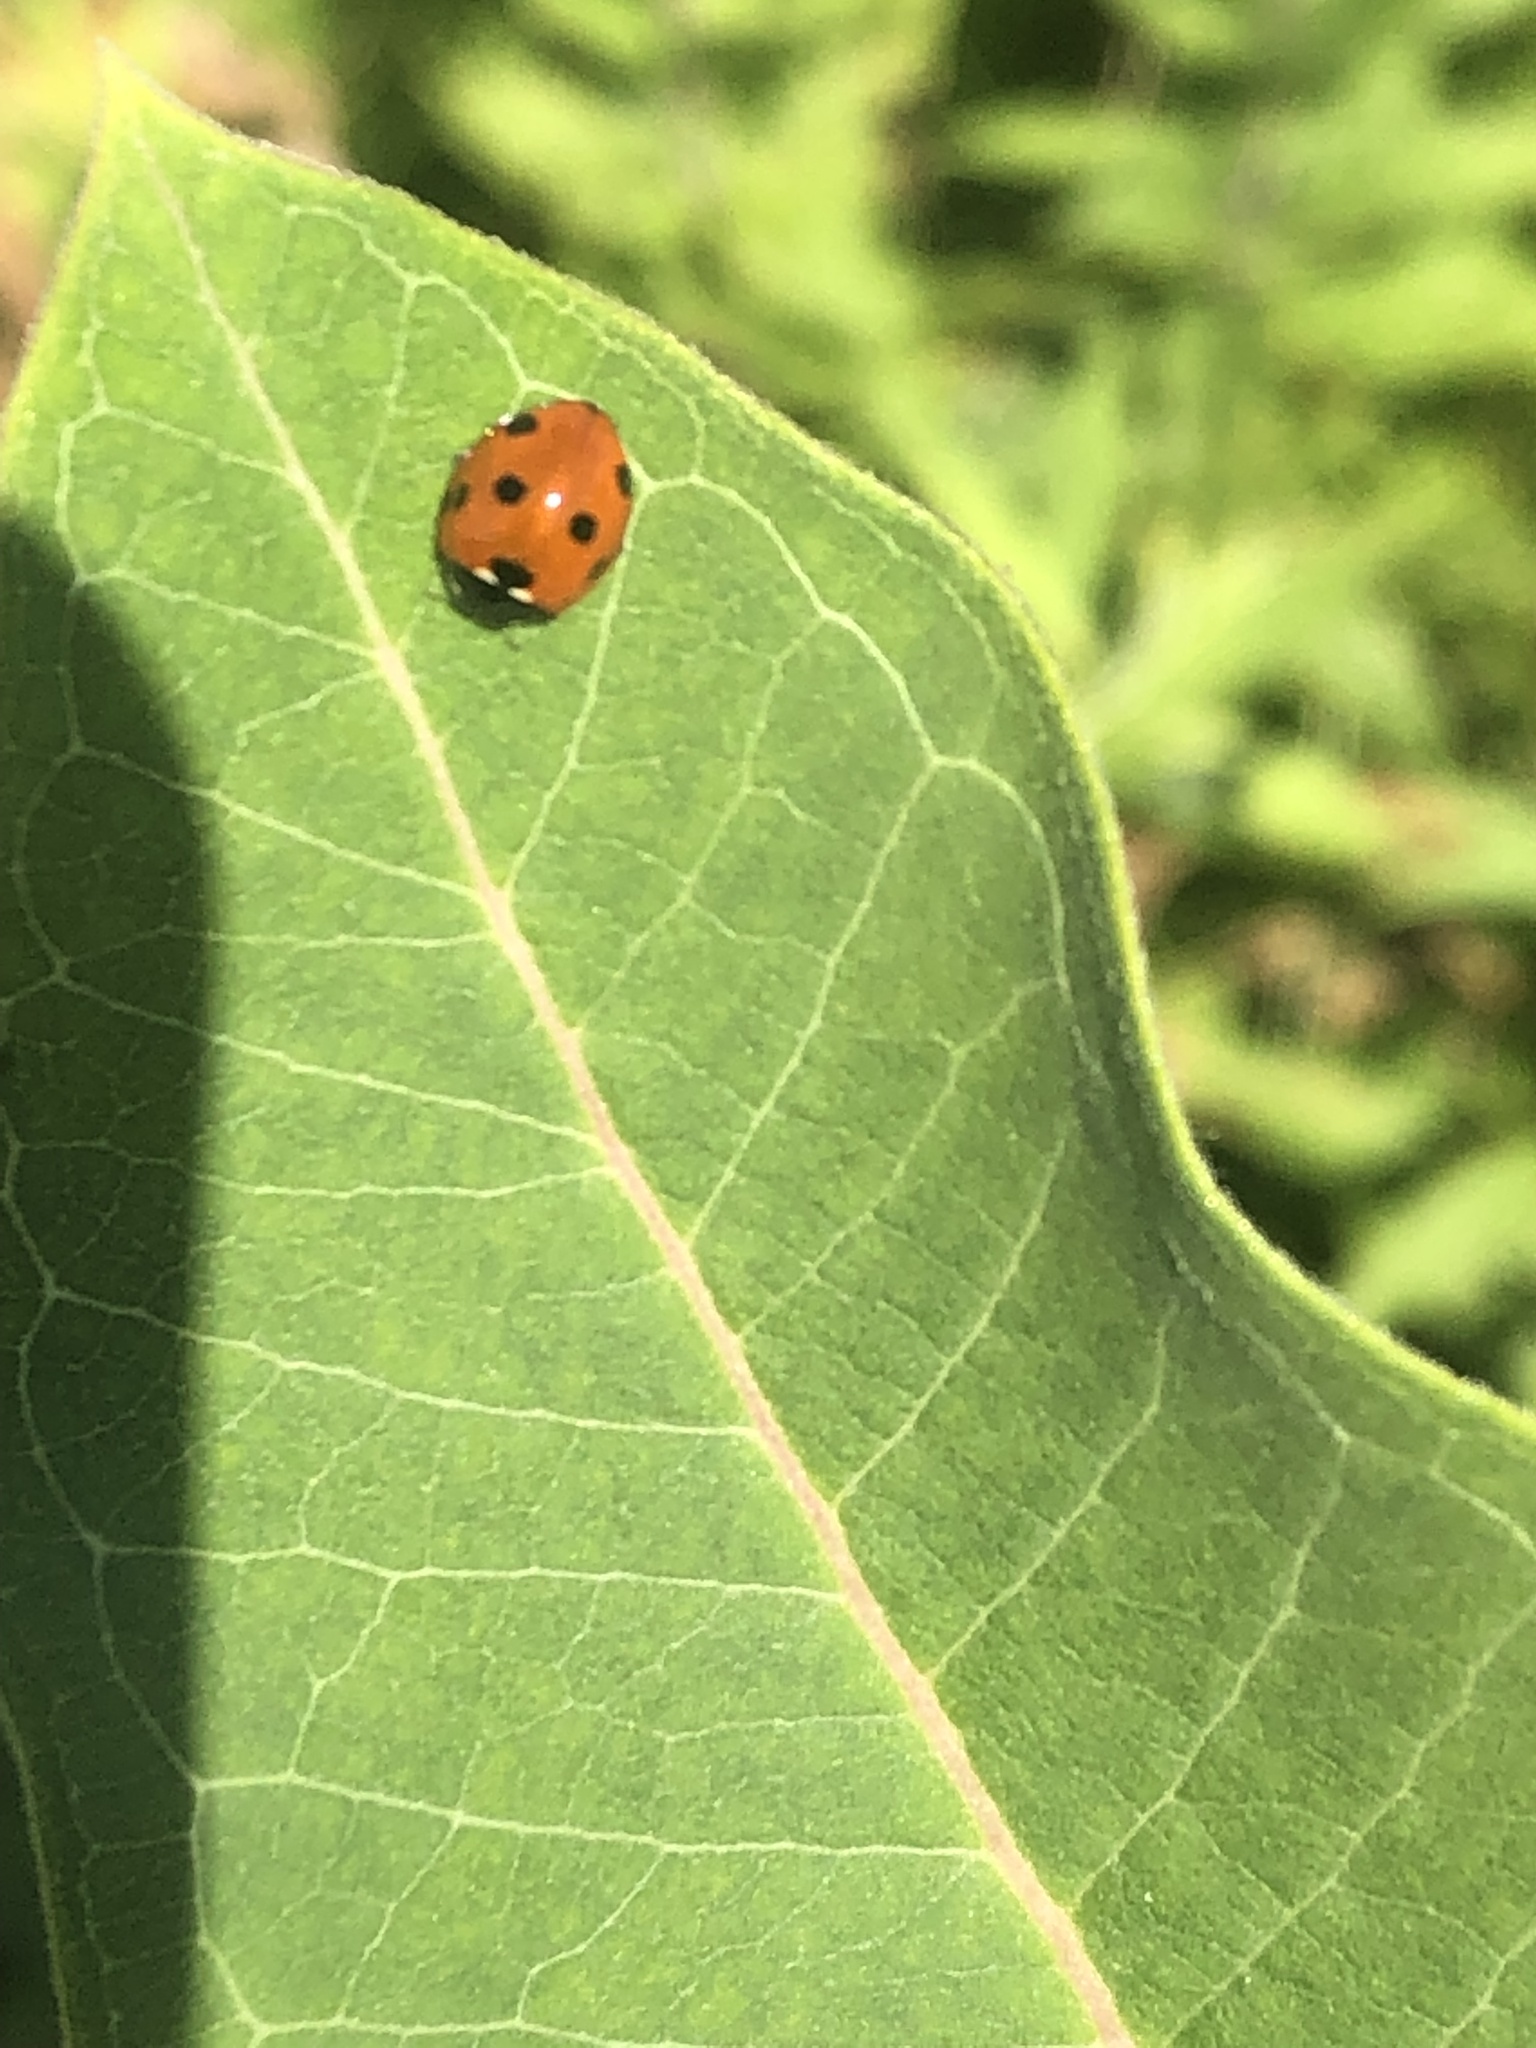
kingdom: Animalia
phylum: Arthropoda
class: Insecta
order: Coleoptera
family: Coccinellidae
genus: Coccinella
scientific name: Coccinella septempunctata
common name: Sevenspotted lady beetle
